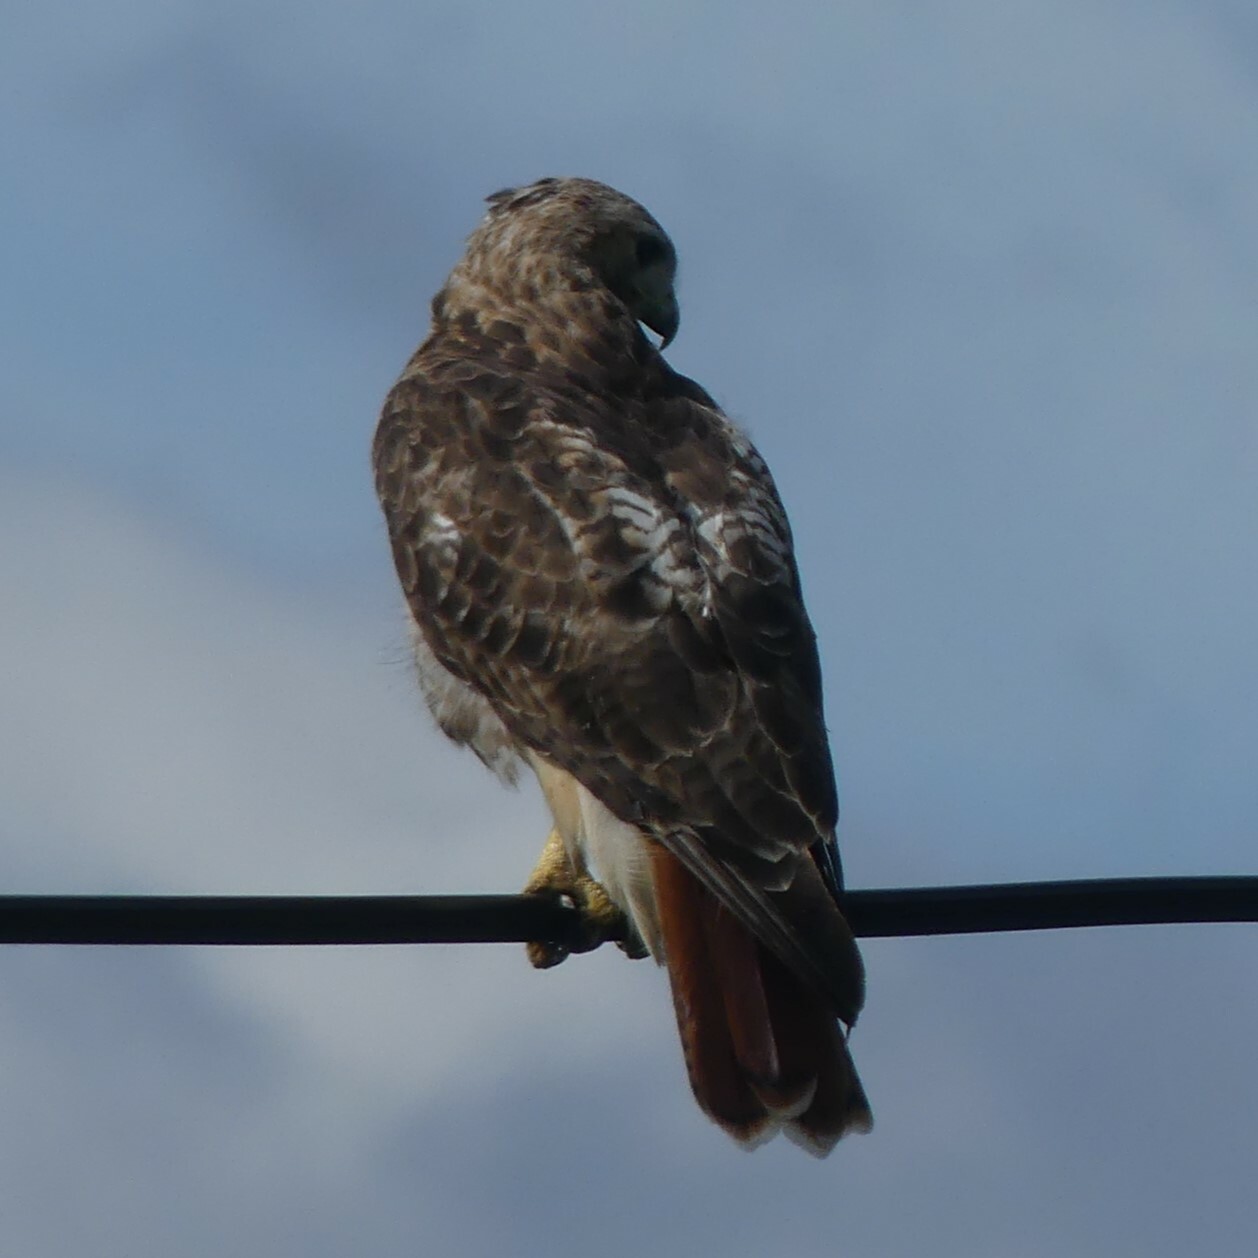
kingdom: Animalia
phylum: Chordata
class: Aves
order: Accipitriformes
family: Accipitridae
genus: Buteo
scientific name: Buteo jamaicensis
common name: Red-tailed hawk
